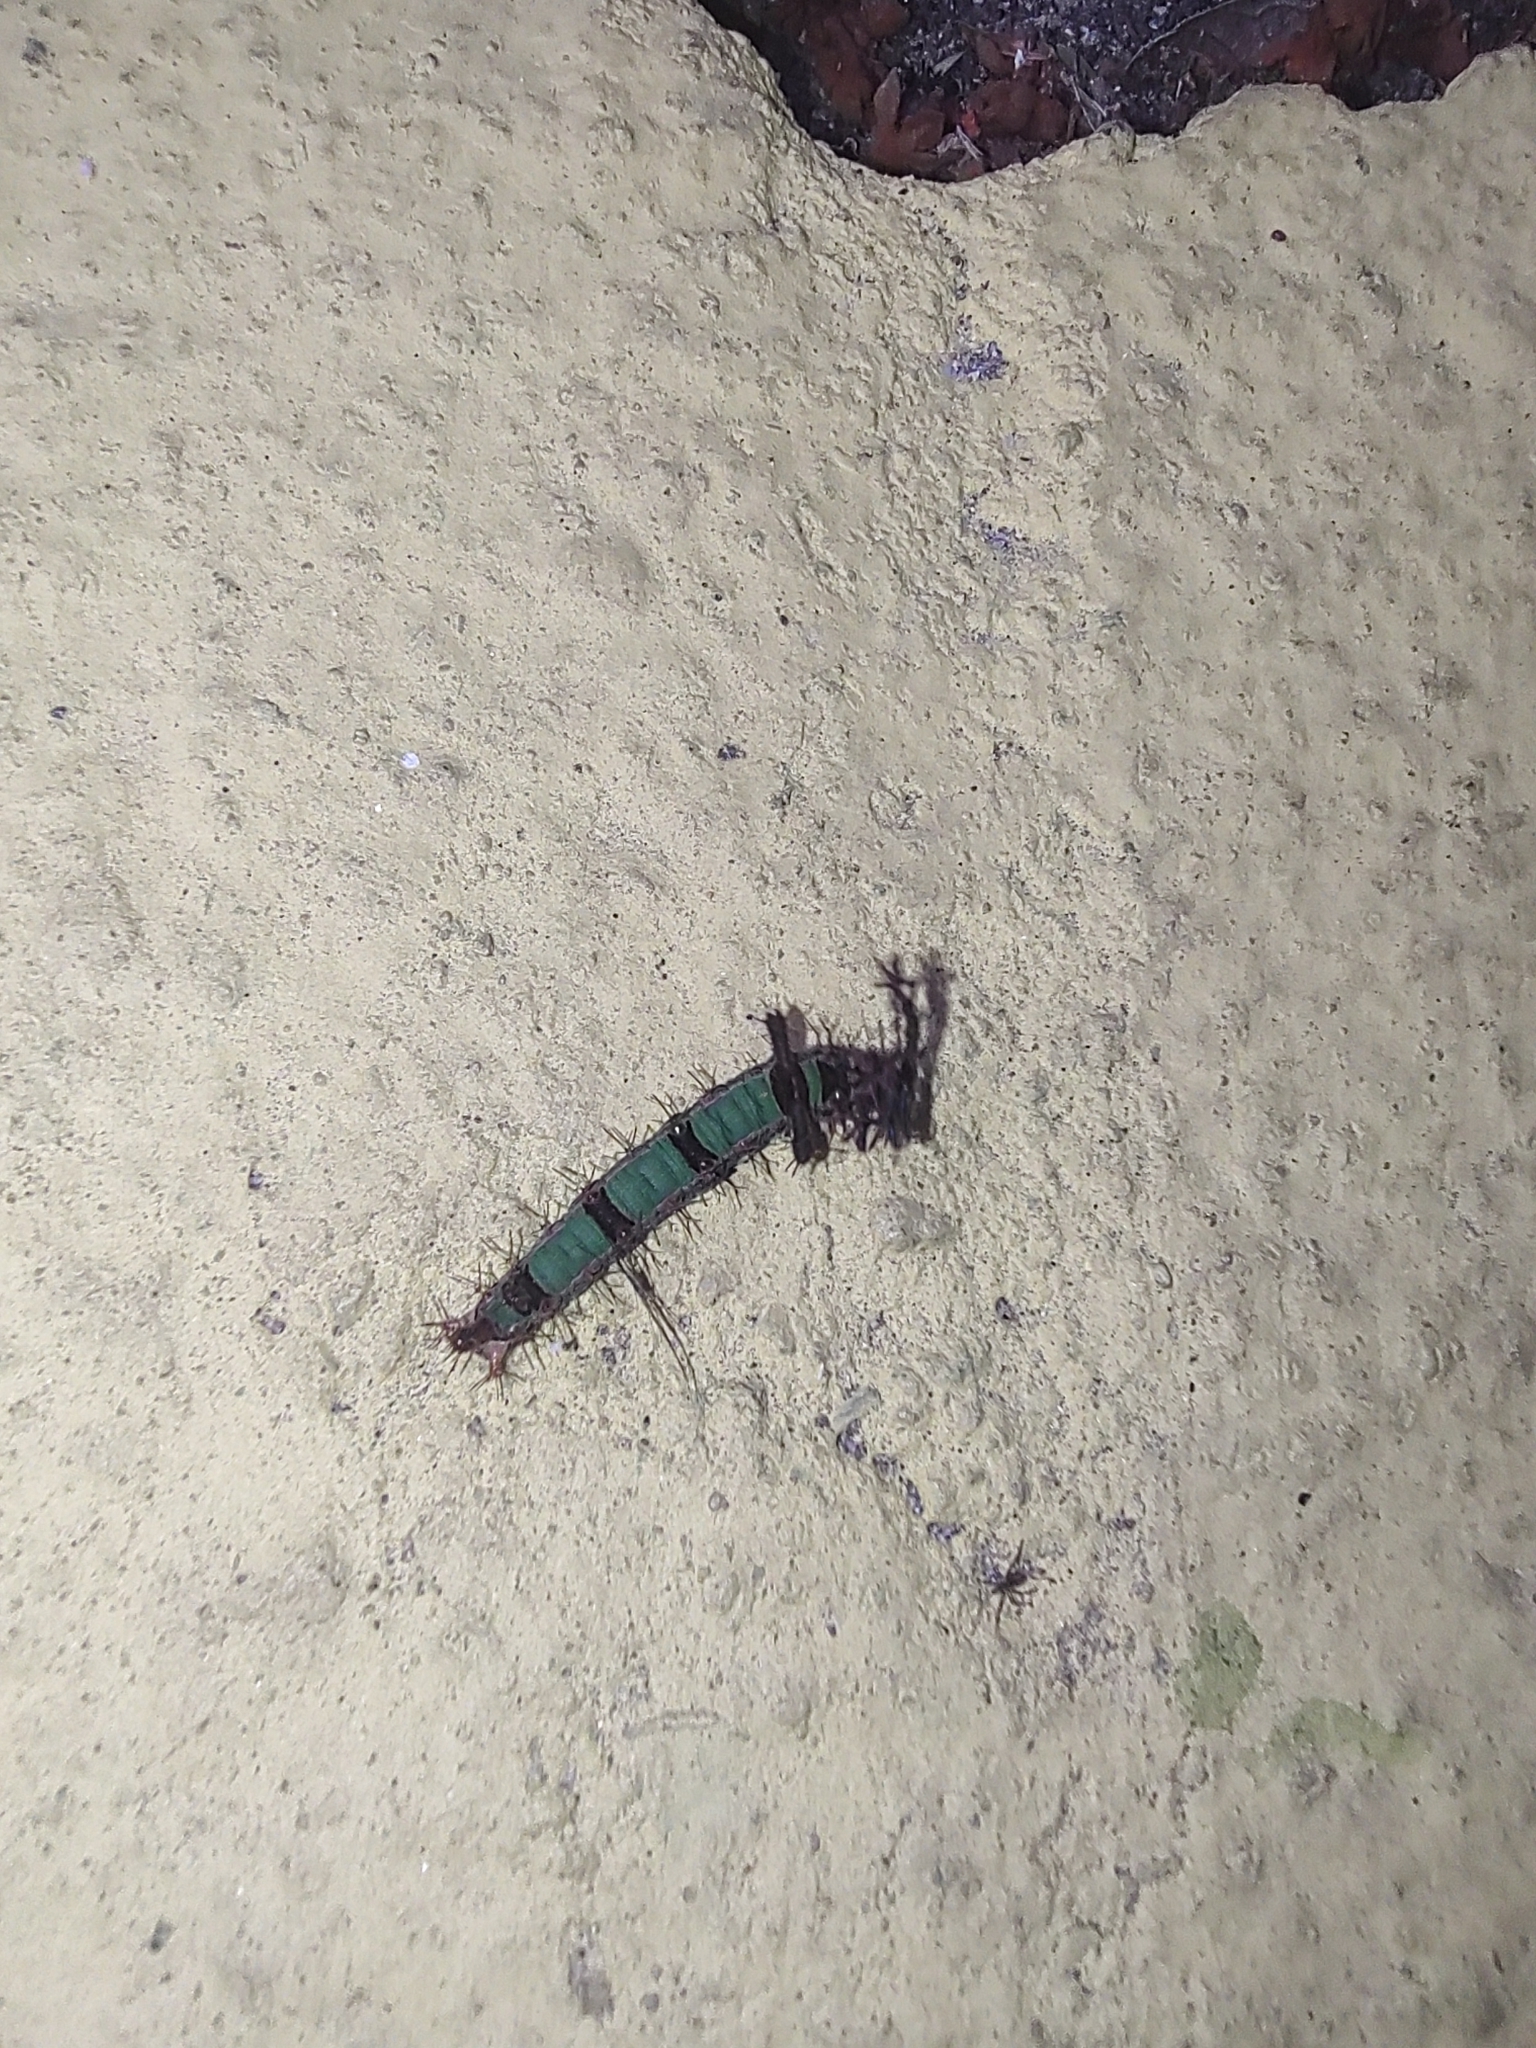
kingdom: Animalia
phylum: Arthropoda
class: Insecta
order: Lepidoptera
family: Nymphalidae
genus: Temenis
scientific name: Temenis laothoe
